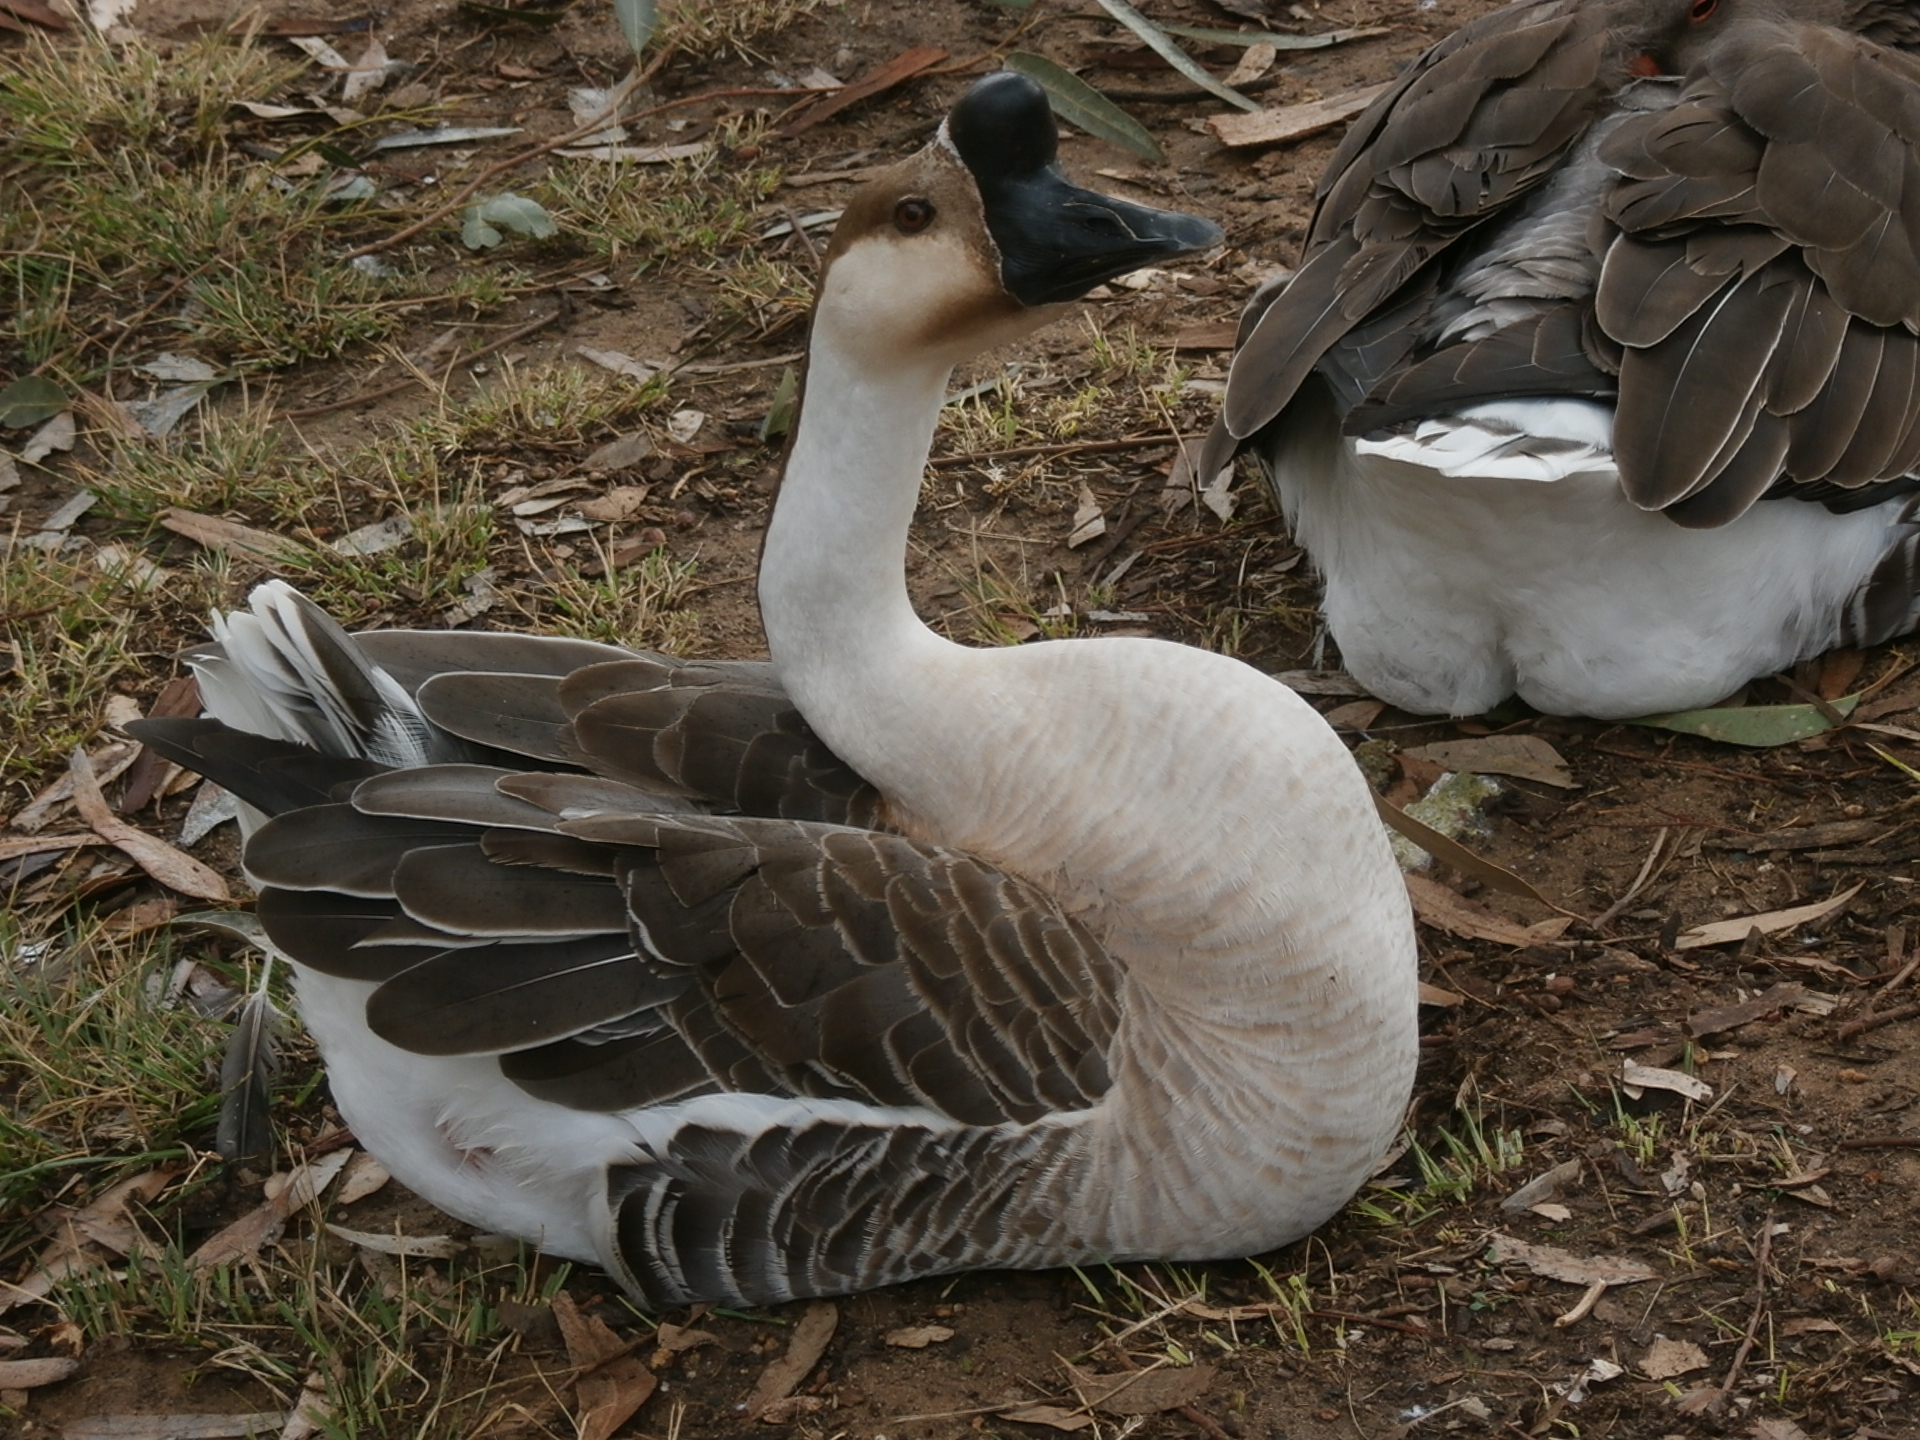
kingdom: Animalia
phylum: Chordata
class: Aves
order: Anseriformes
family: Anatidae
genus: Anser
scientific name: Anser cygnoides
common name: Swan goose
